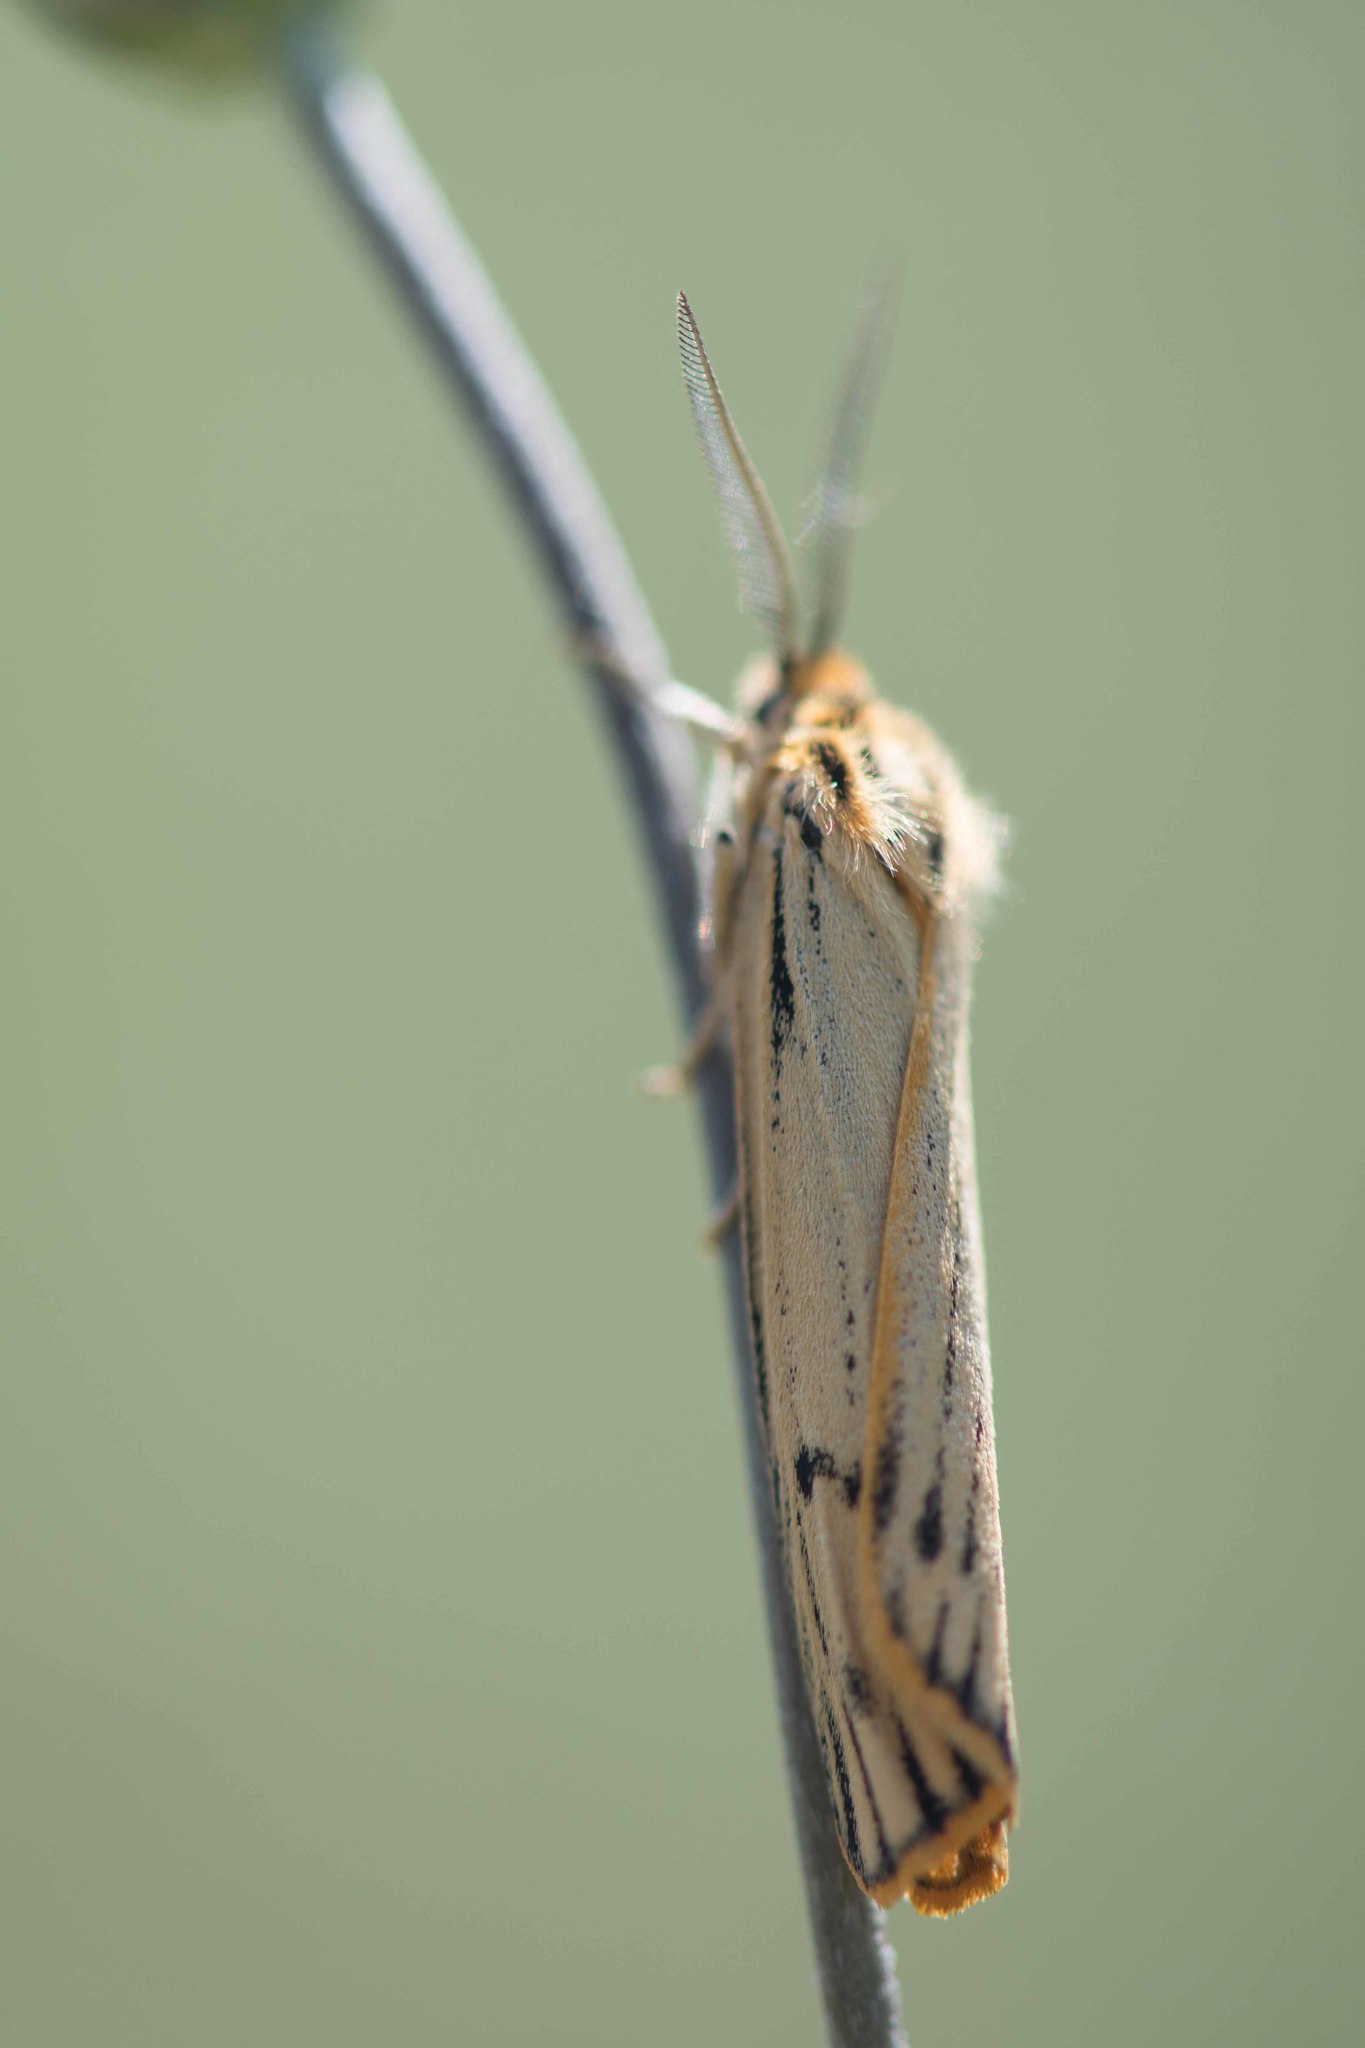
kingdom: Animalia
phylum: Arthropoda
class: Insecta
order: Lepidoptera
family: Erebidae
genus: Coscinia
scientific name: Coscinia Spiris striata
